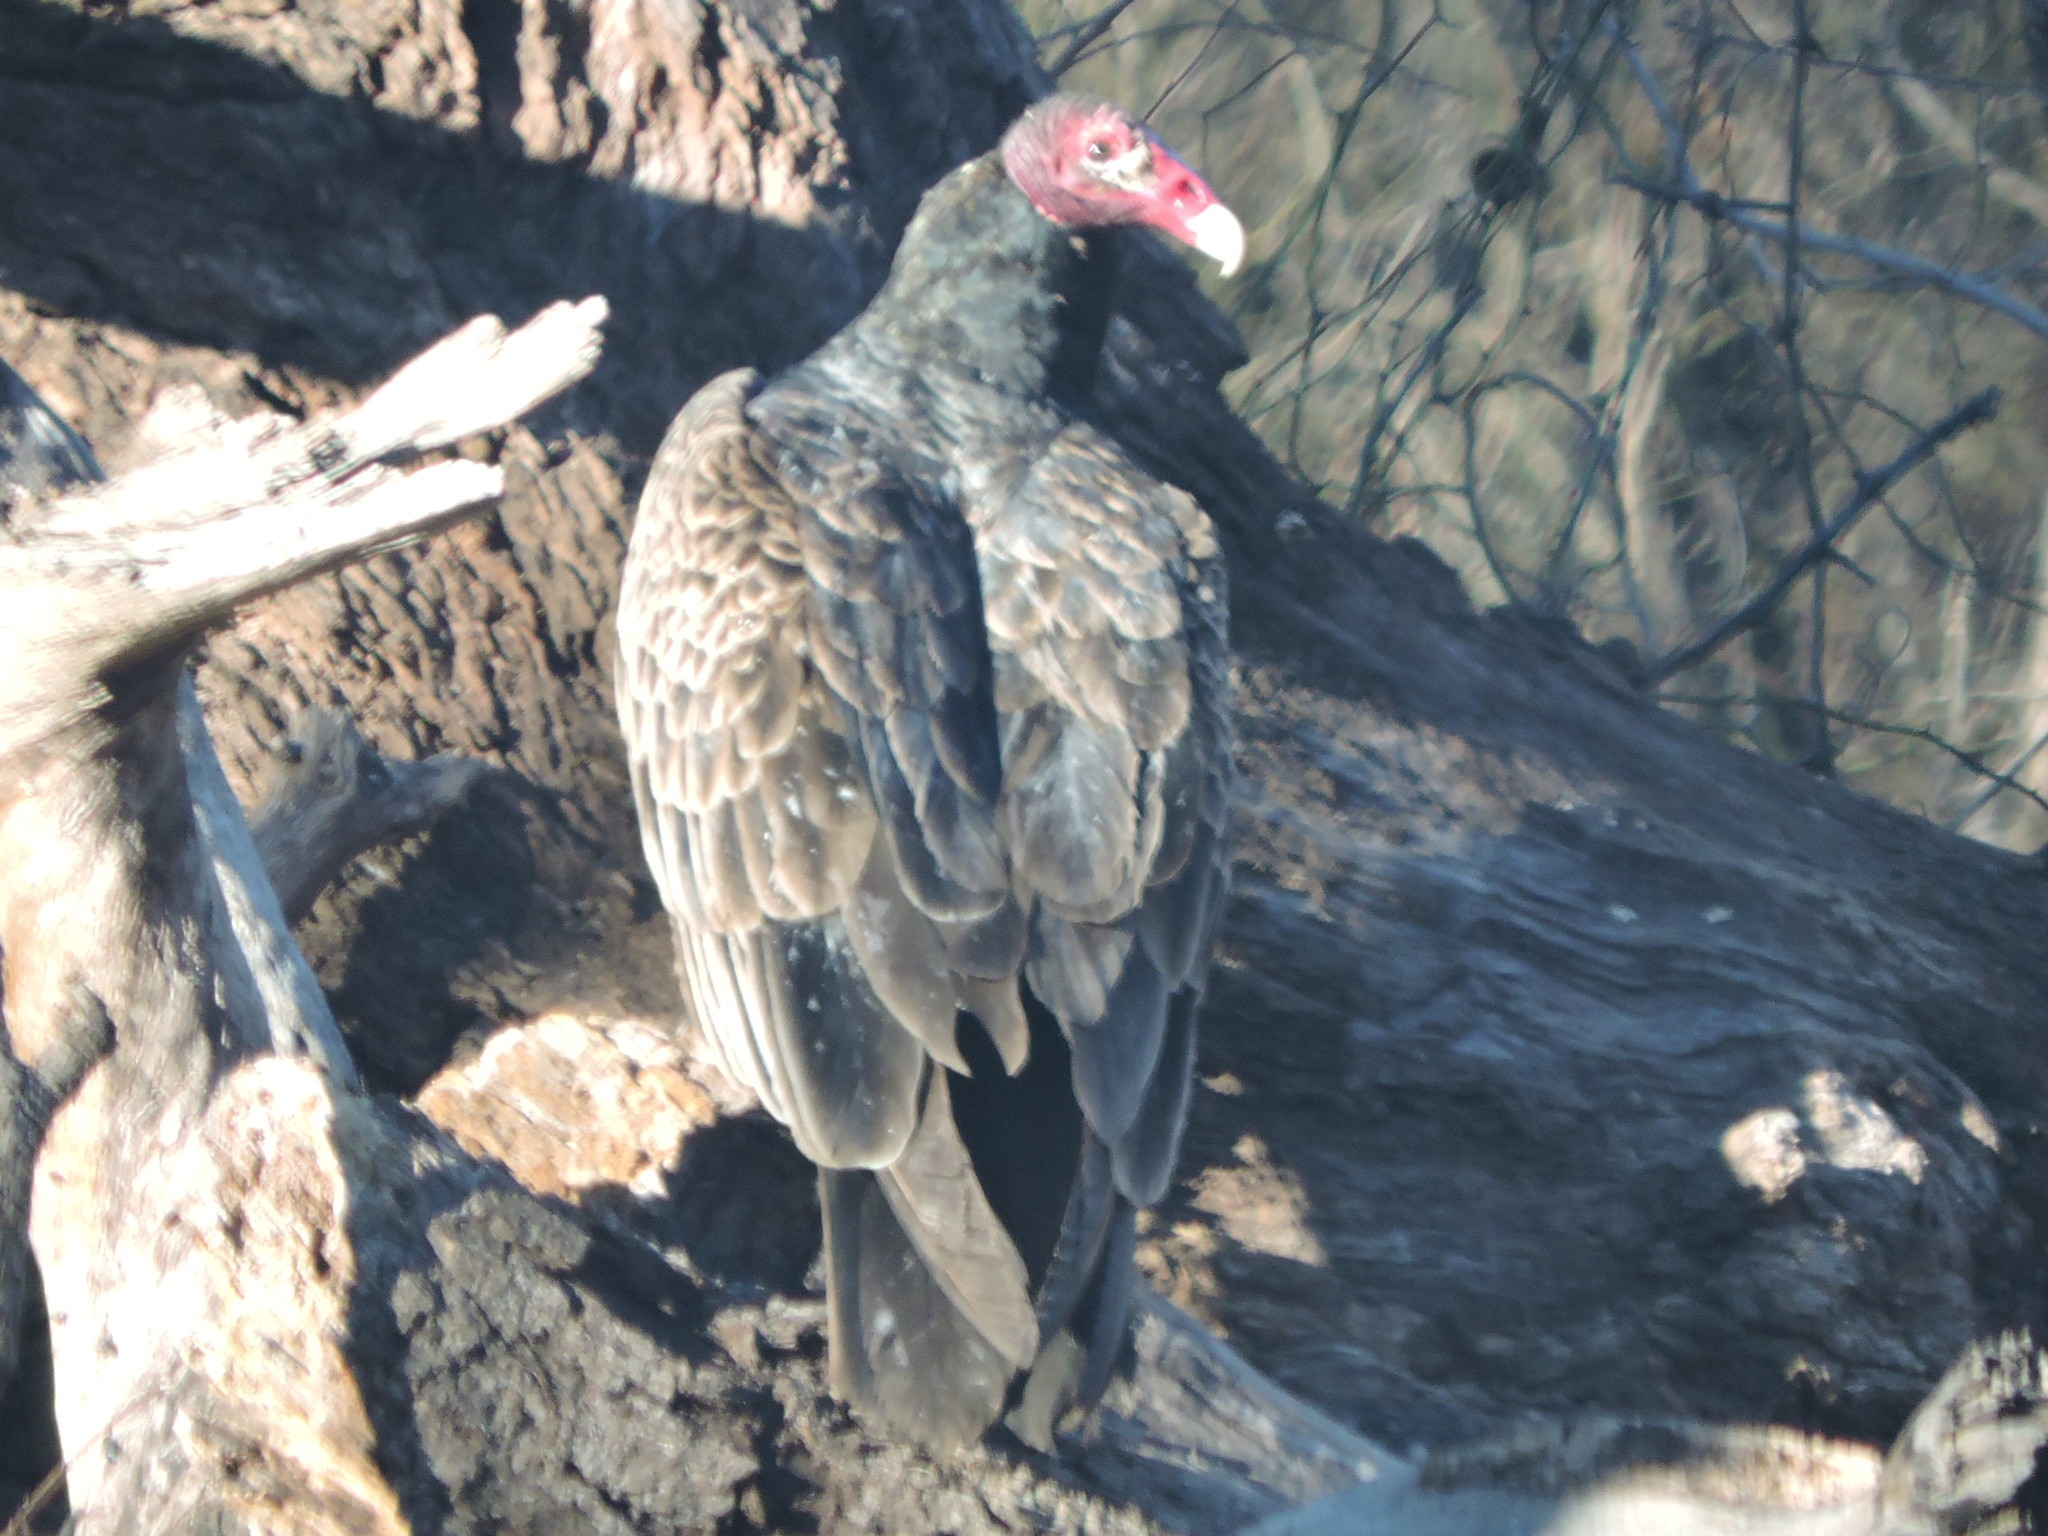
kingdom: Animalia
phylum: Chordata
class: Aves
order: Accipitriformes
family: Cathartidae
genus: Cathartes
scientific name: Cathartes aura
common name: Turkey vulture
